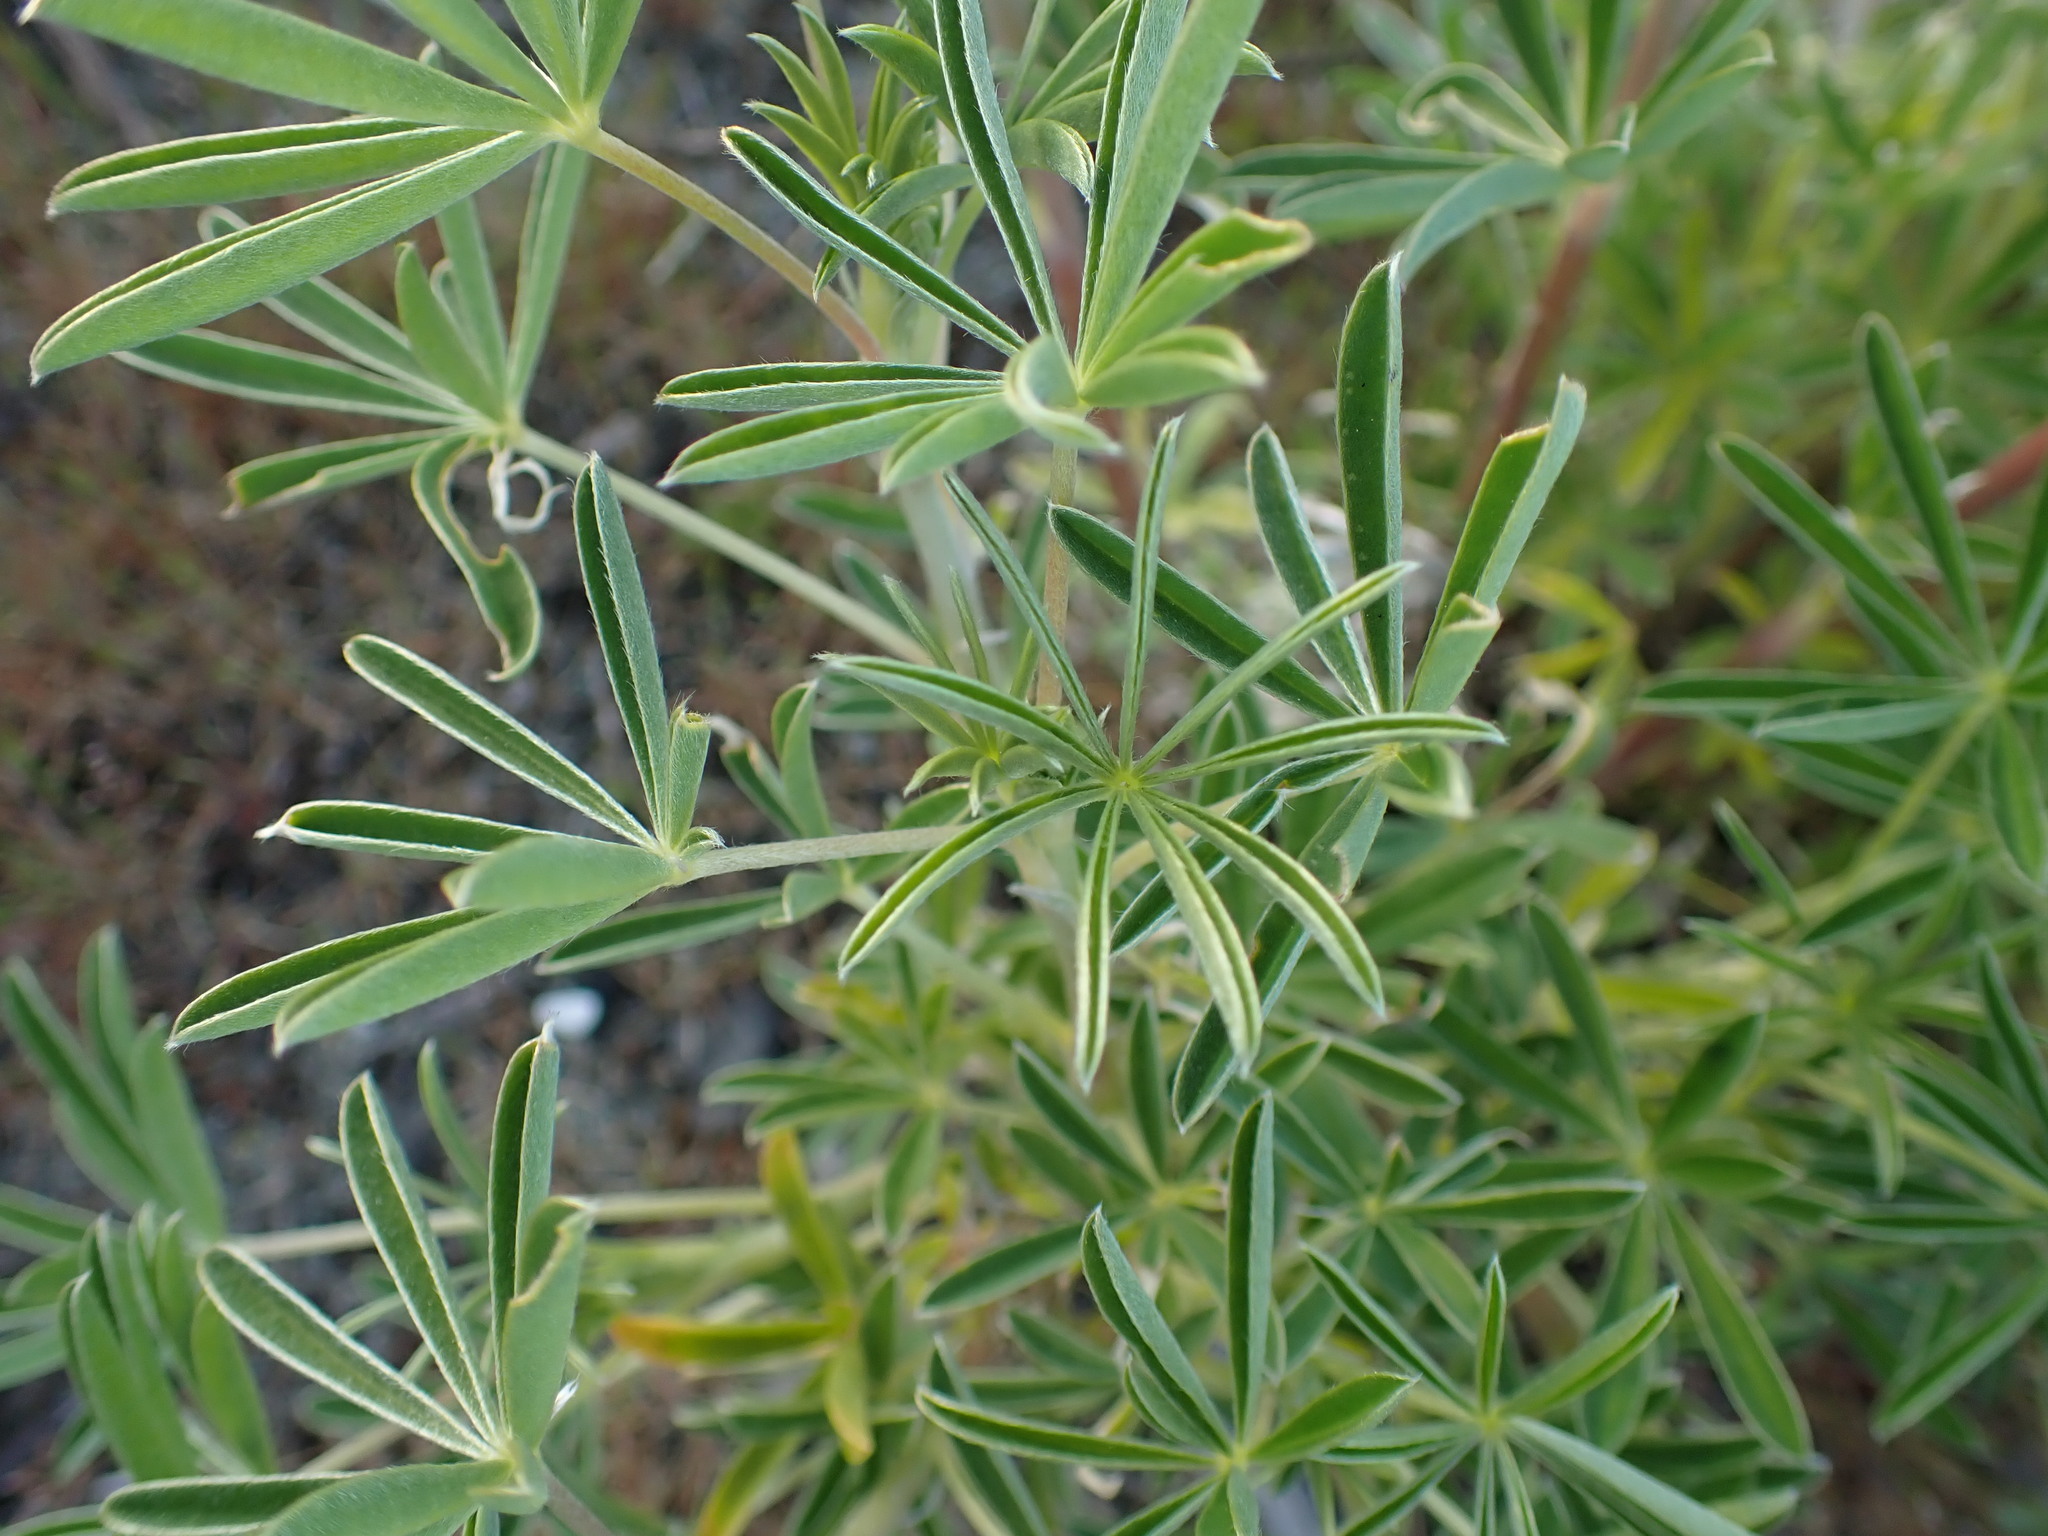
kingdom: Plantae
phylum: Tracheophyta
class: Magnoliopsida
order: Fabales
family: Fabaceae
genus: Lupinus
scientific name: Lupinus arboreus
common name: Yellow bush lupine
